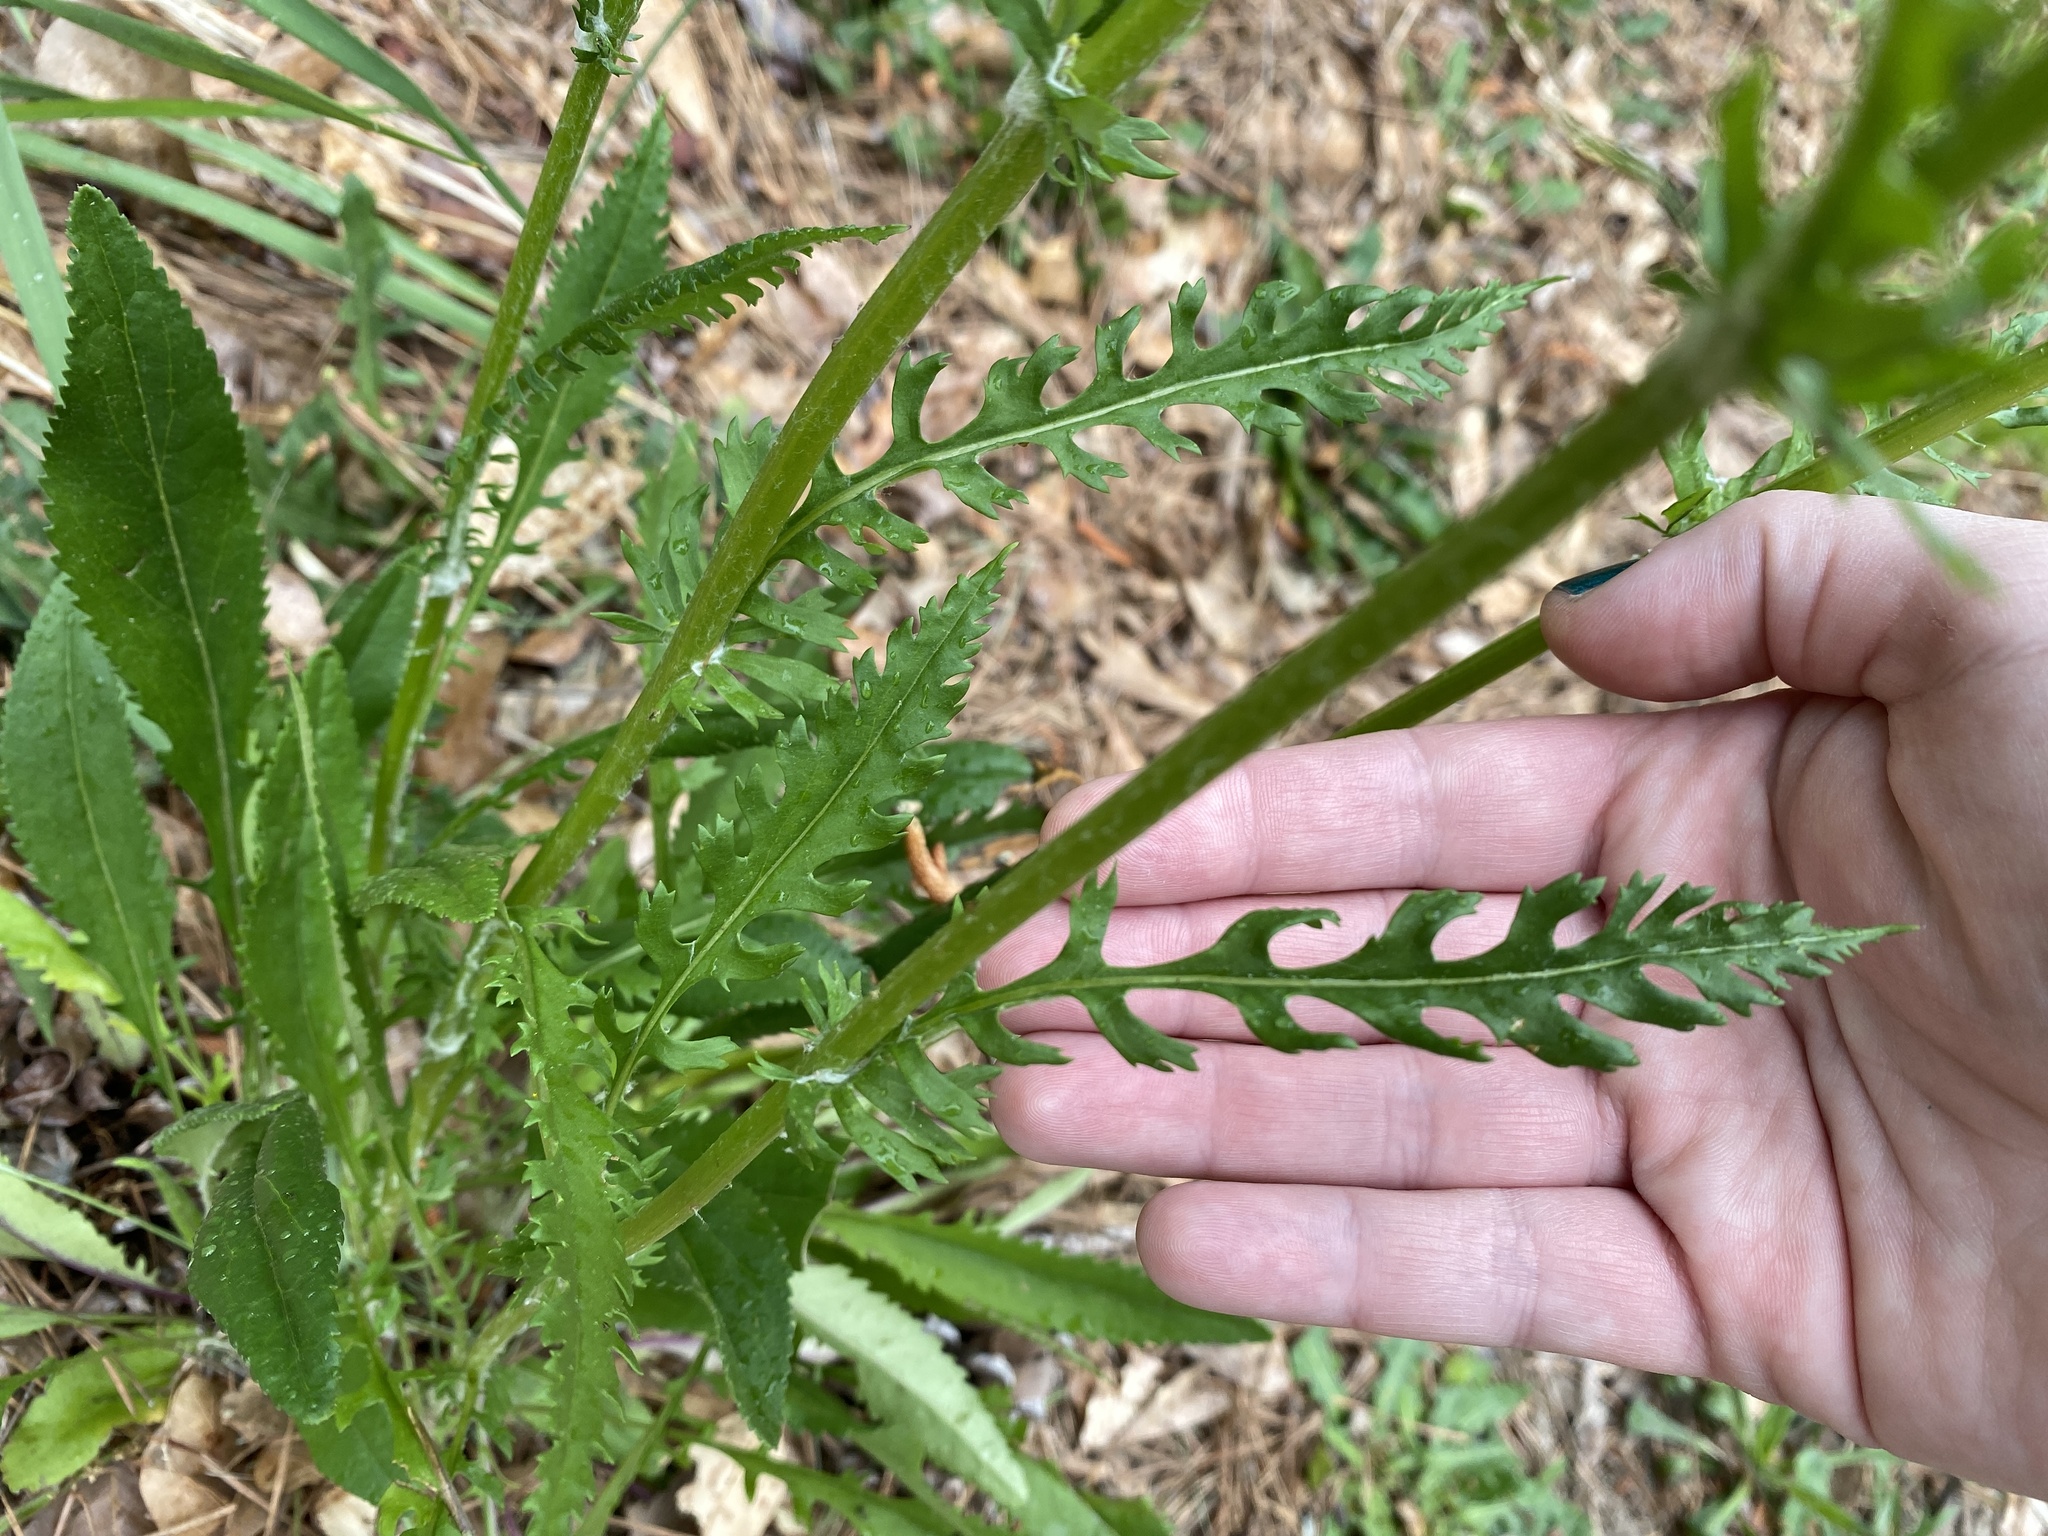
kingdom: Plantae
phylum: Tracheophyta
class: Magnoliopsida
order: Asterales
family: Asteraceae
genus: Packera
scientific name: Packera anonyma
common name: Small ragwort
